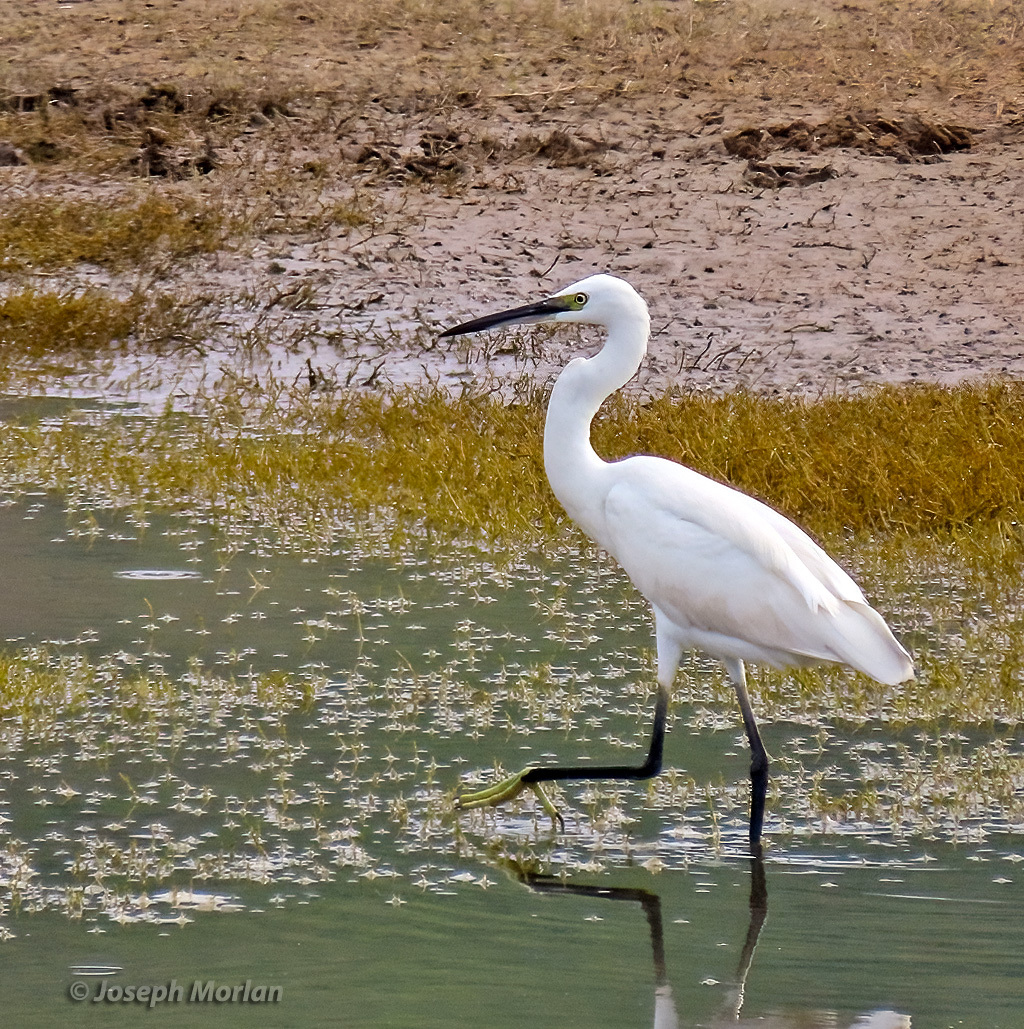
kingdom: Animalia
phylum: Chordata
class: Aves
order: Pelecaniformes
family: Ardeidae
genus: Egretta
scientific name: Egretta garzetta
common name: Little egret
